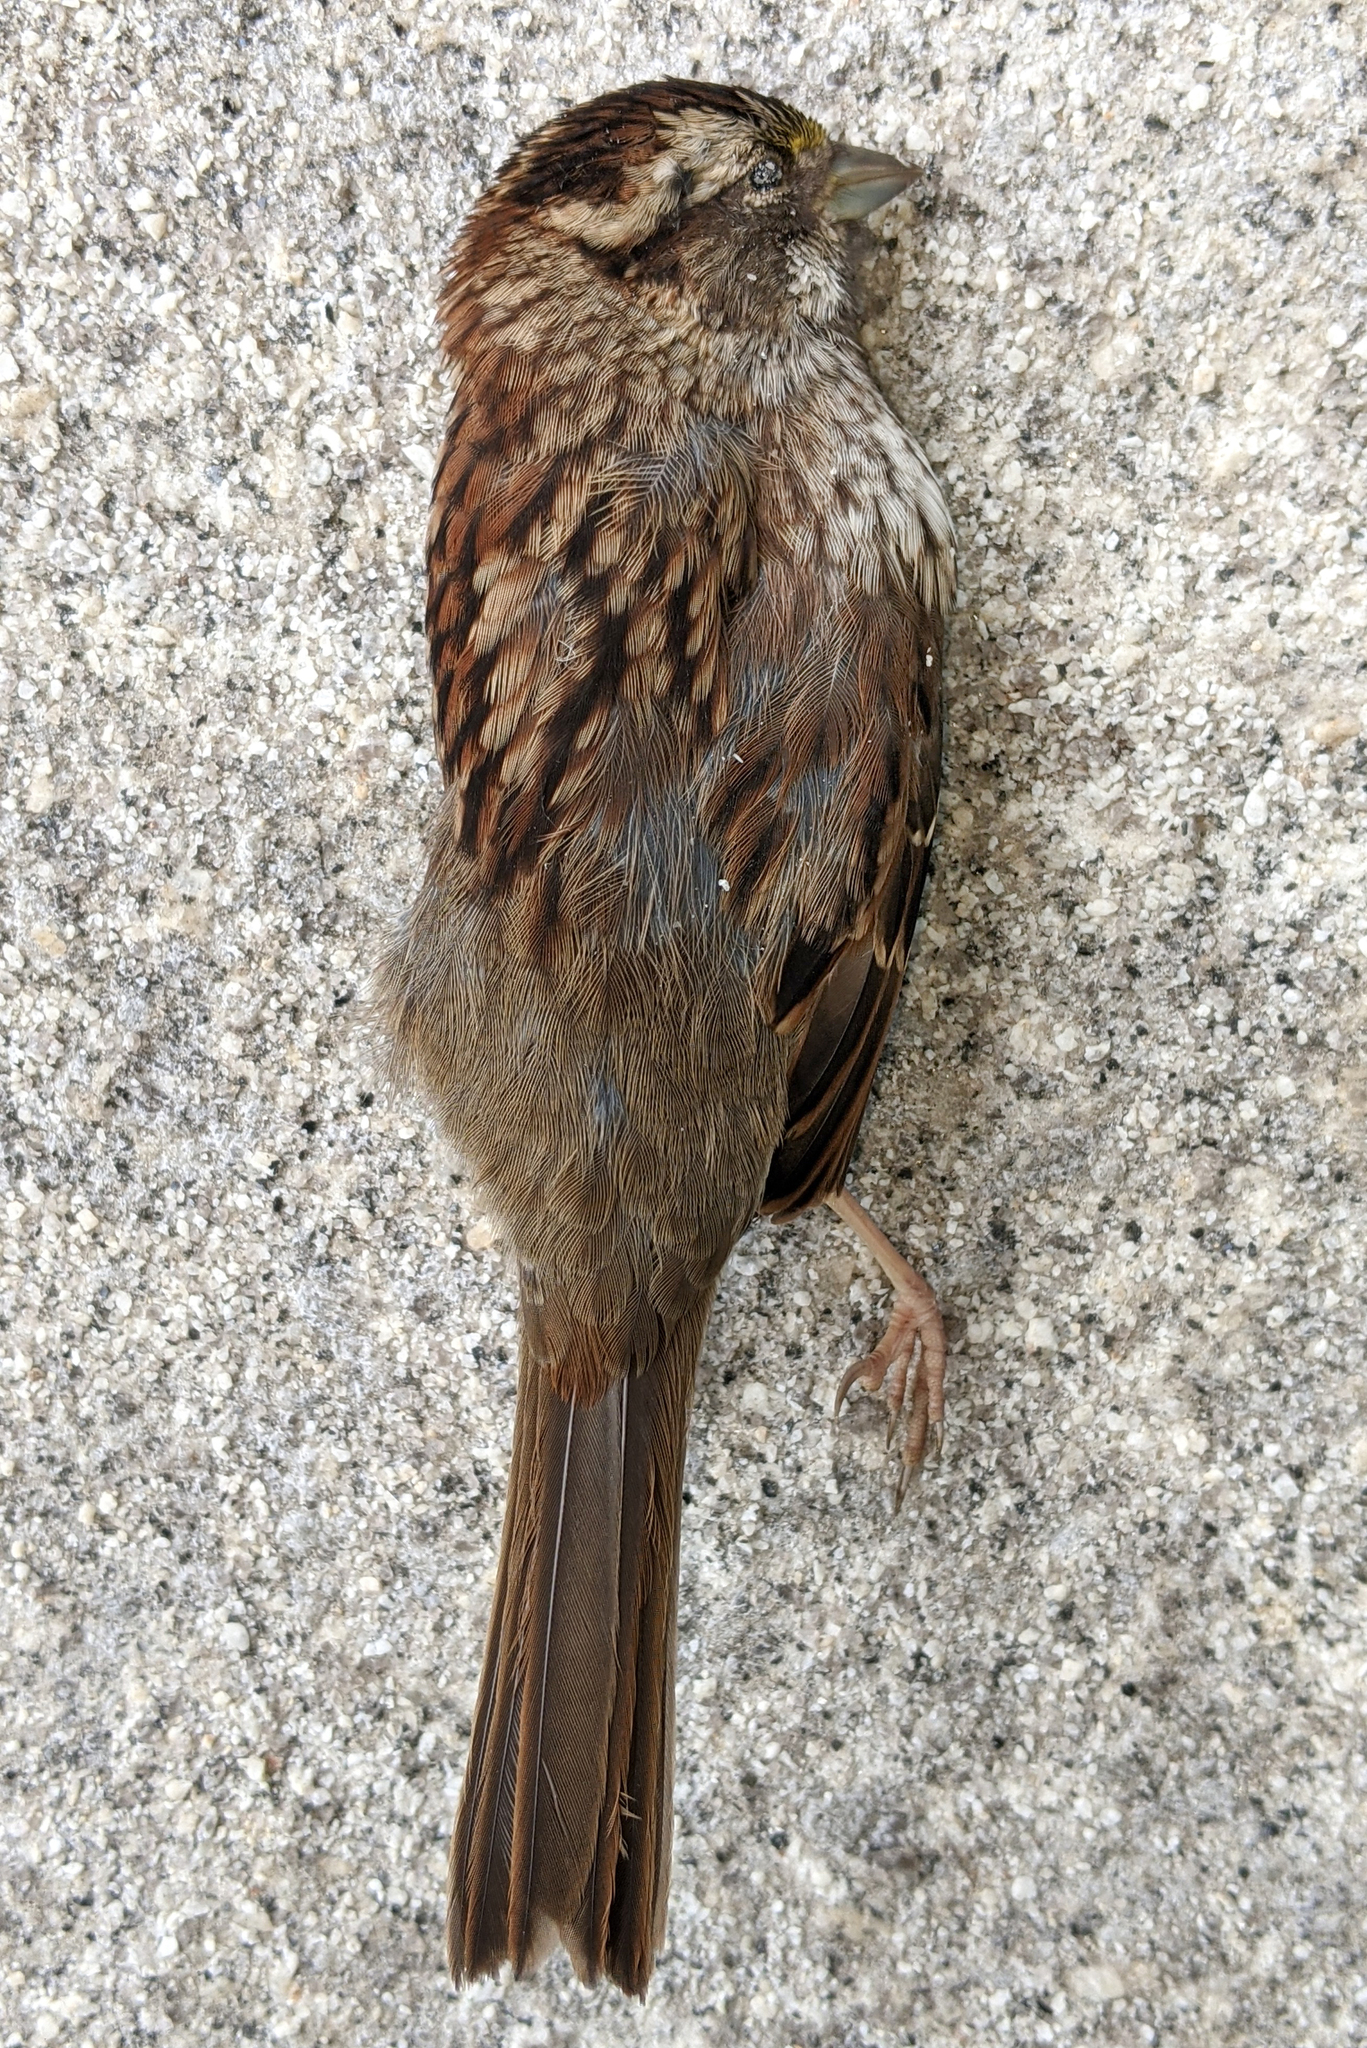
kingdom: Animalia
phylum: Chordata
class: Aves
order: Passeriformes
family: Passerellidae
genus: Zonotrichia
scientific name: Zonotrichia albicollis
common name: White-throated sparrow
